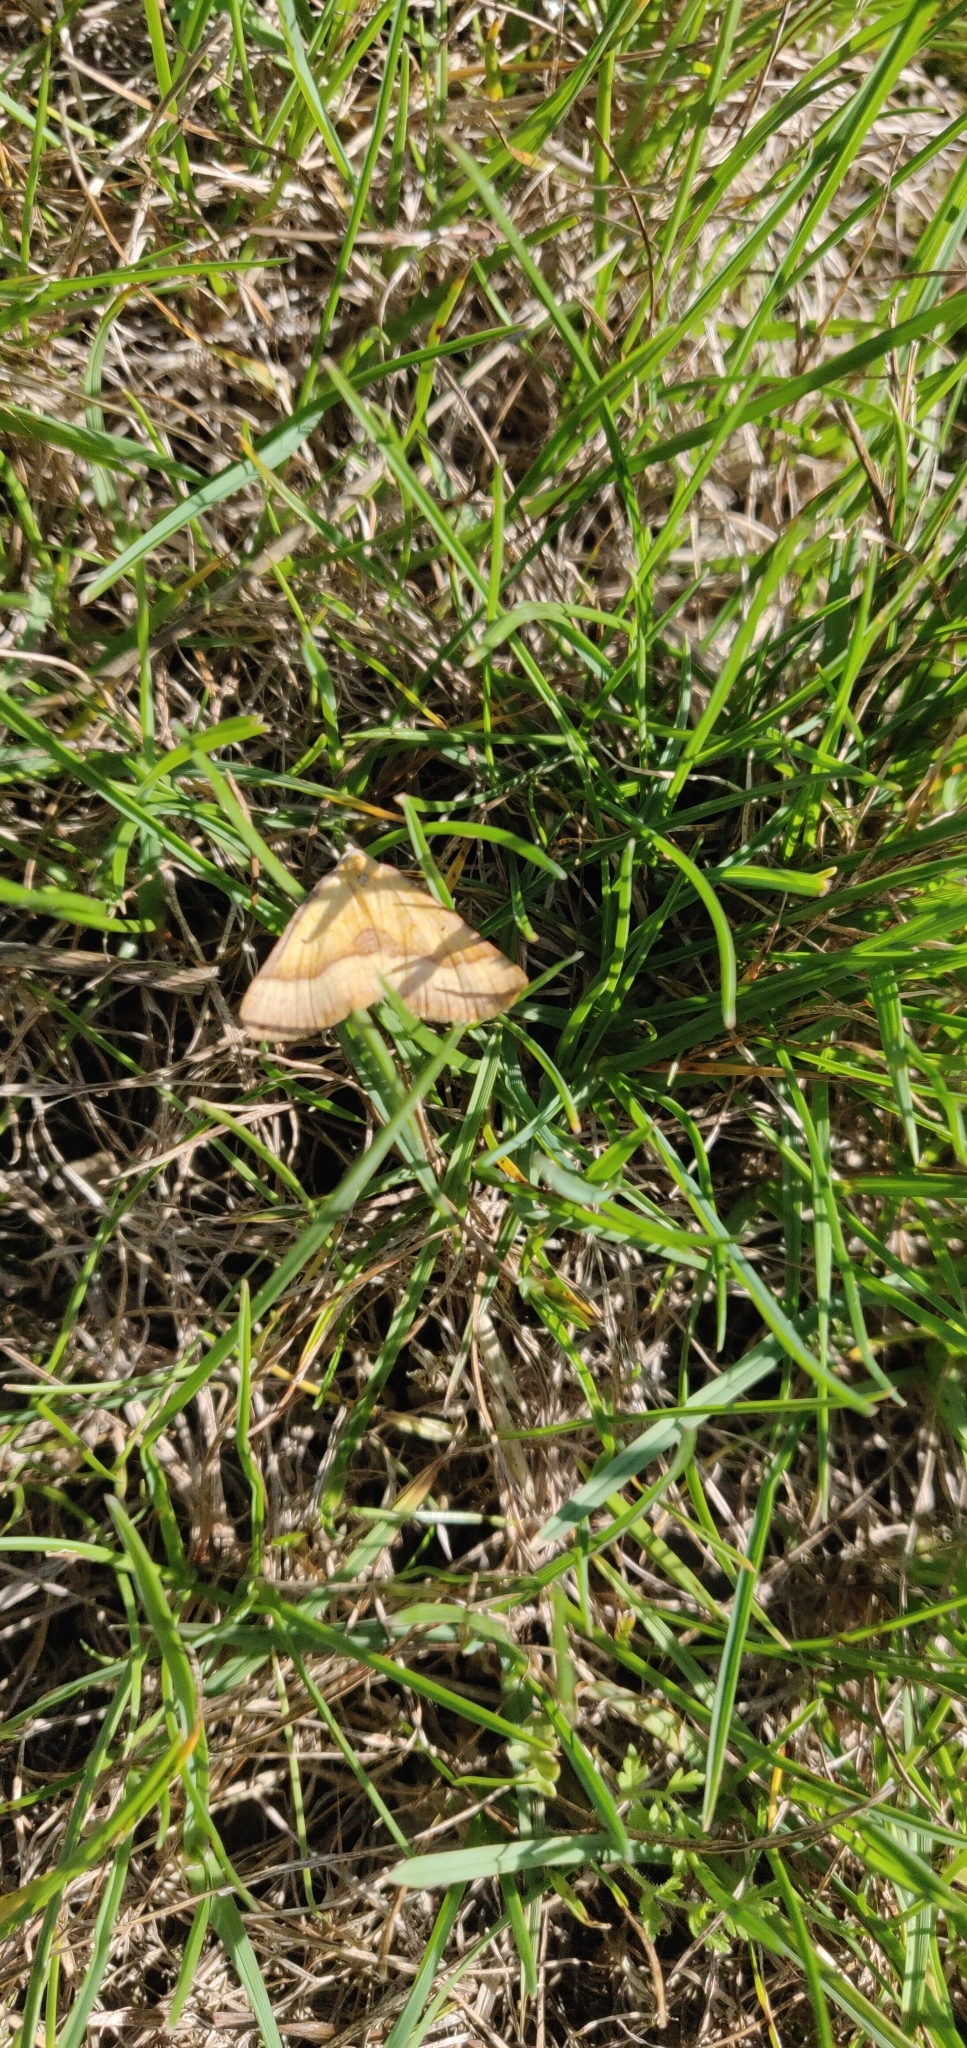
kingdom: Animalia
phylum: Arthropoda
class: Insecta
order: Lepidoptera
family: Geometridae
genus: Anachloris
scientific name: Anachloris subochraria
